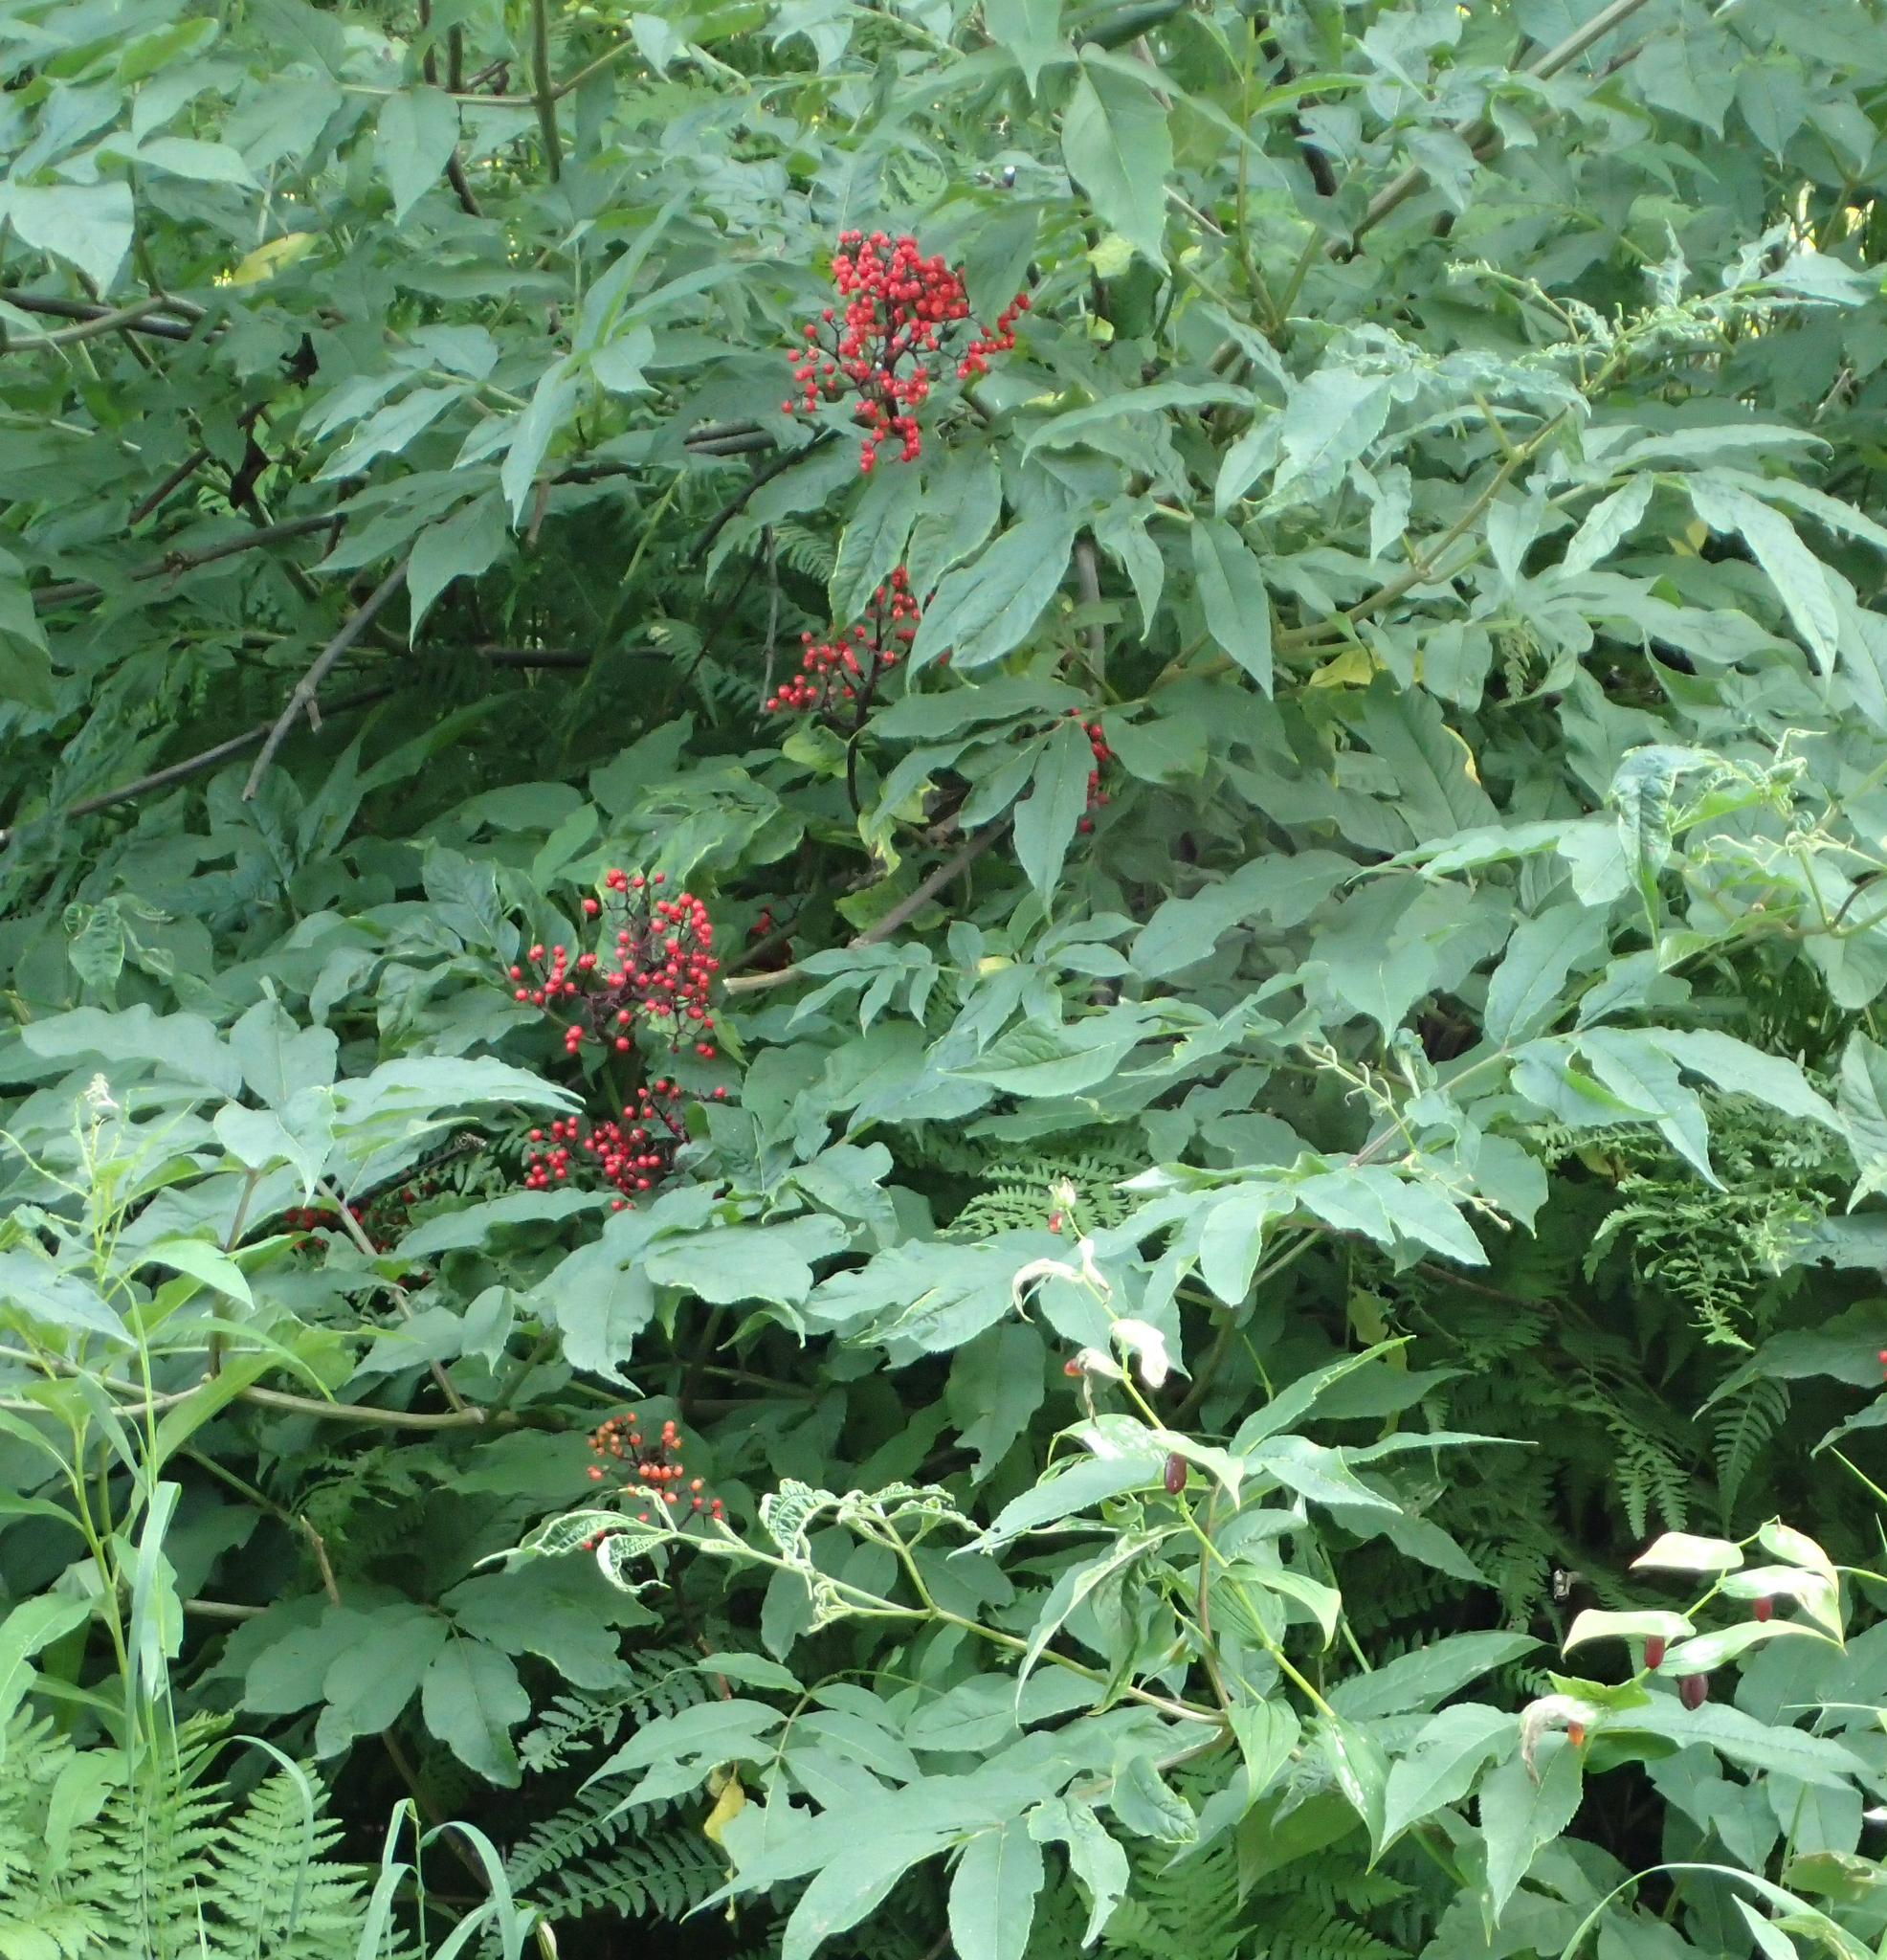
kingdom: Plantae
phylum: Tracheophyta
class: Magnoliopsida
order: Dipsacales
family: Viburnaceae
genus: Sambucus
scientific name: Sambucus racemosa
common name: Red-berried elder
